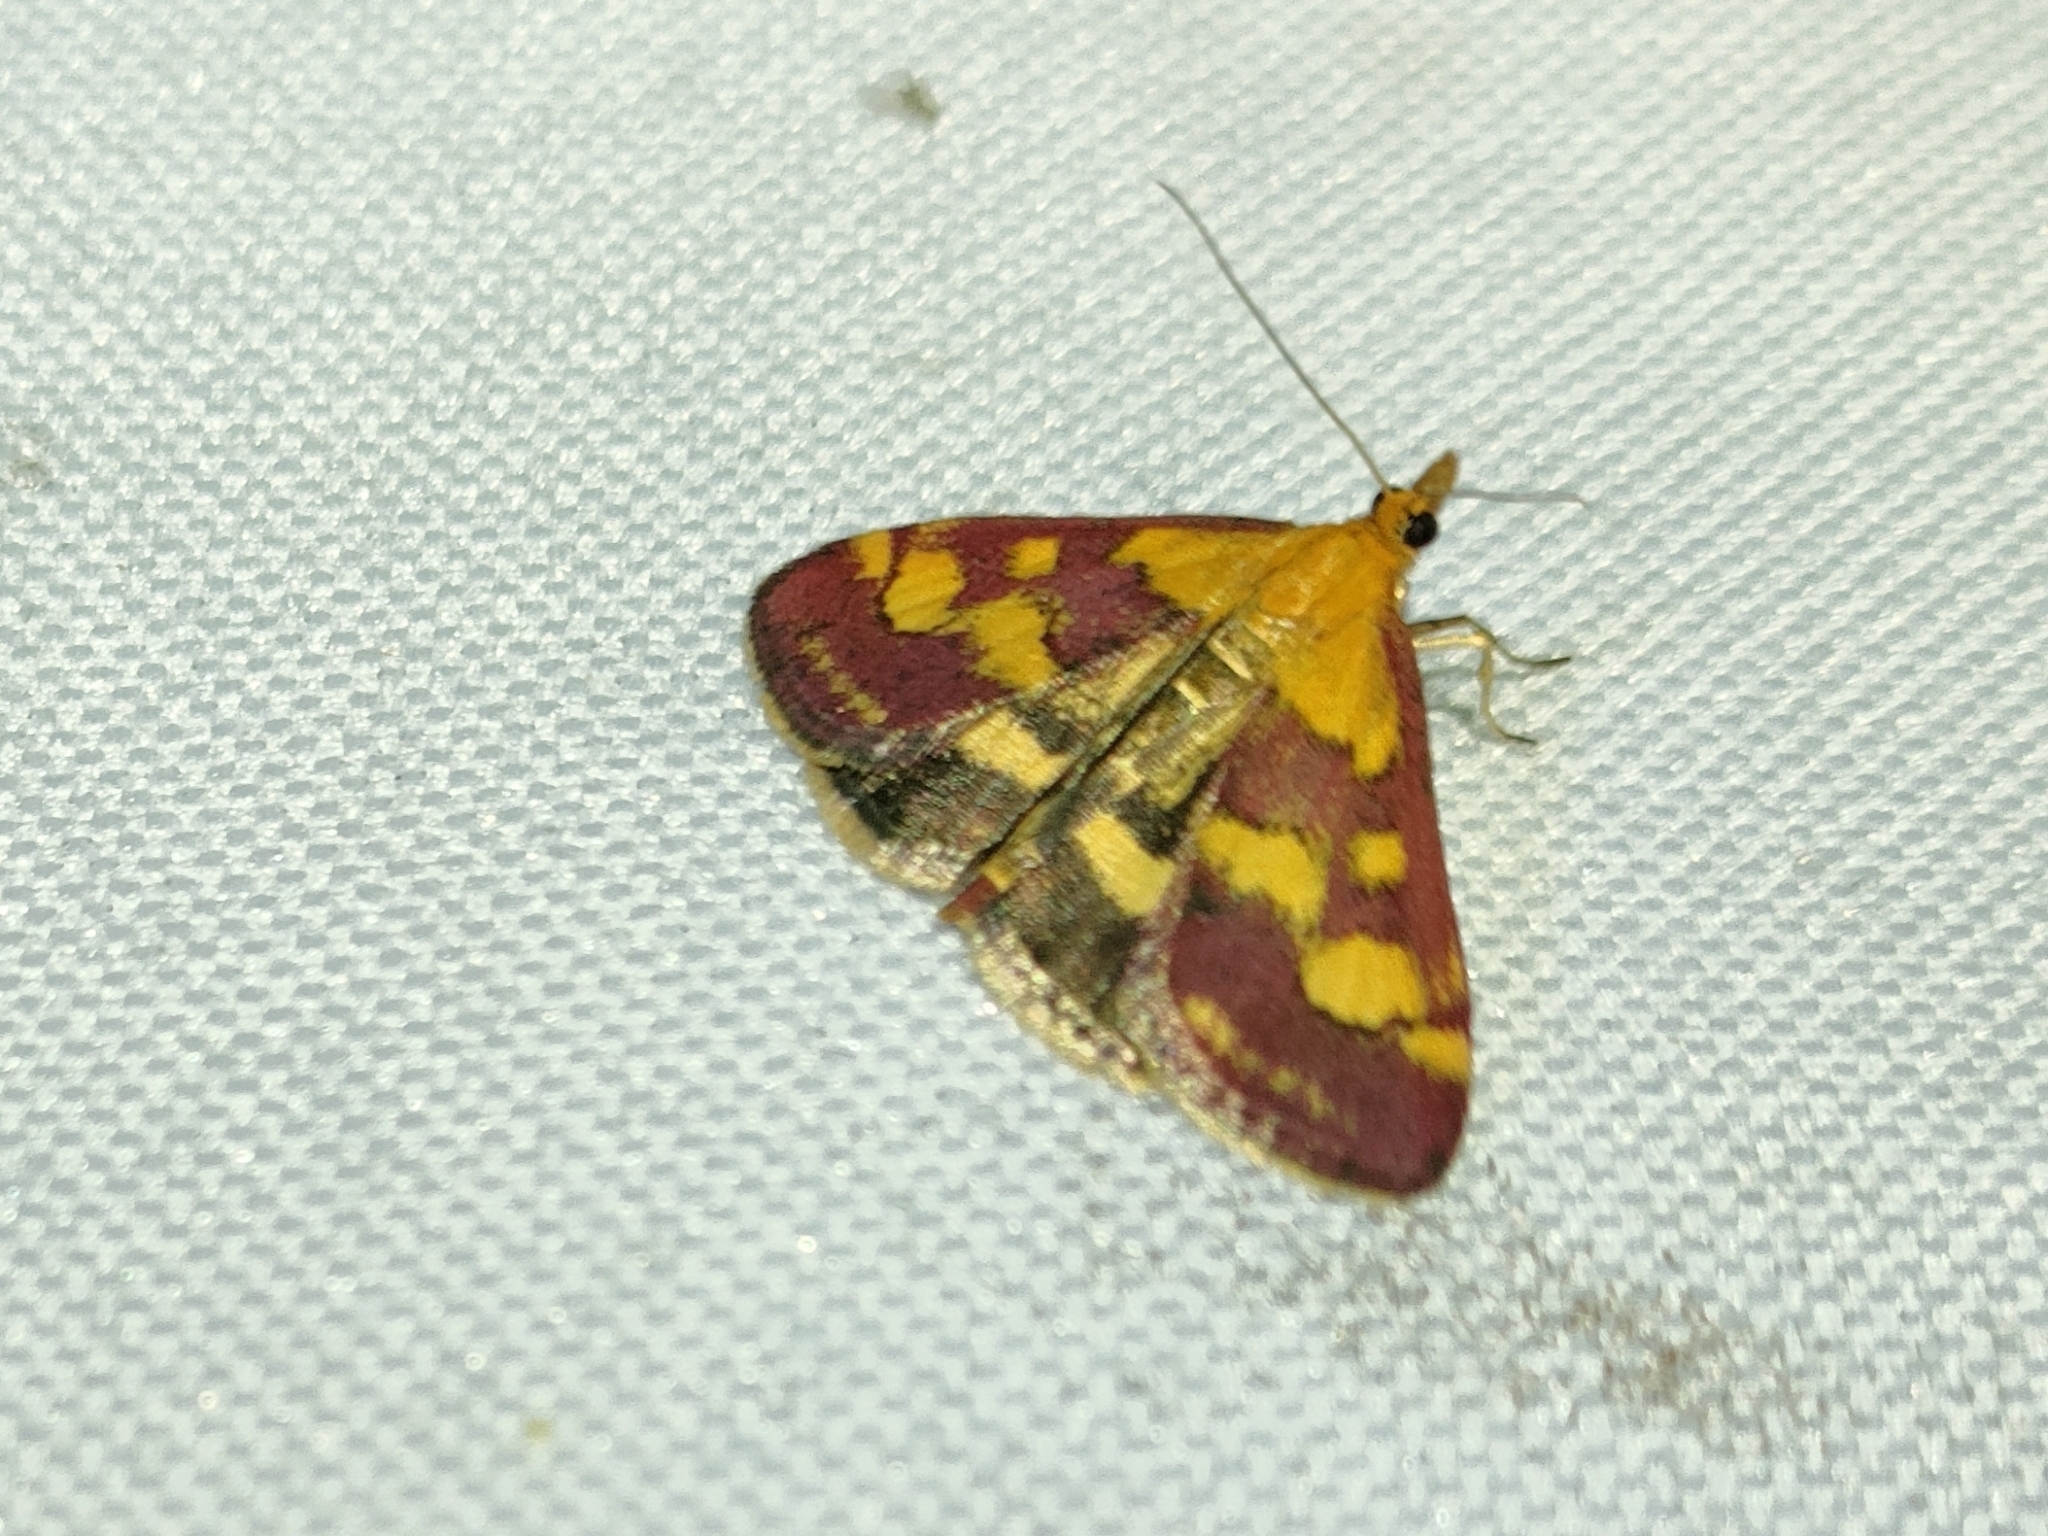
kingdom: Animalia
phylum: Arthropoda
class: Insecta
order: Lepidoptera
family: Crambidae
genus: Pyrausta
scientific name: Pyrausta purpuralis
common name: Common purple & gold
